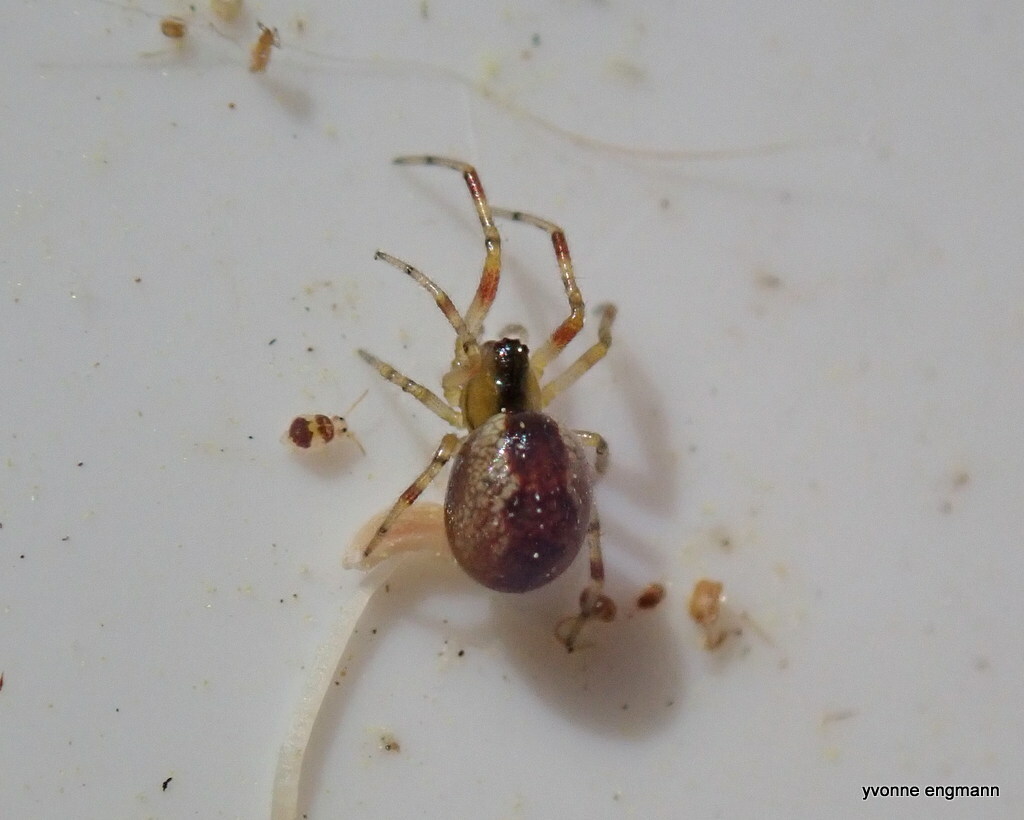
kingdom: Animalia
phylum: Arthropoda
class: Arachnida
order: Araneae
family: Theridiidae
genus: Anelosimus
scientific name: Anelosimus vittatus
